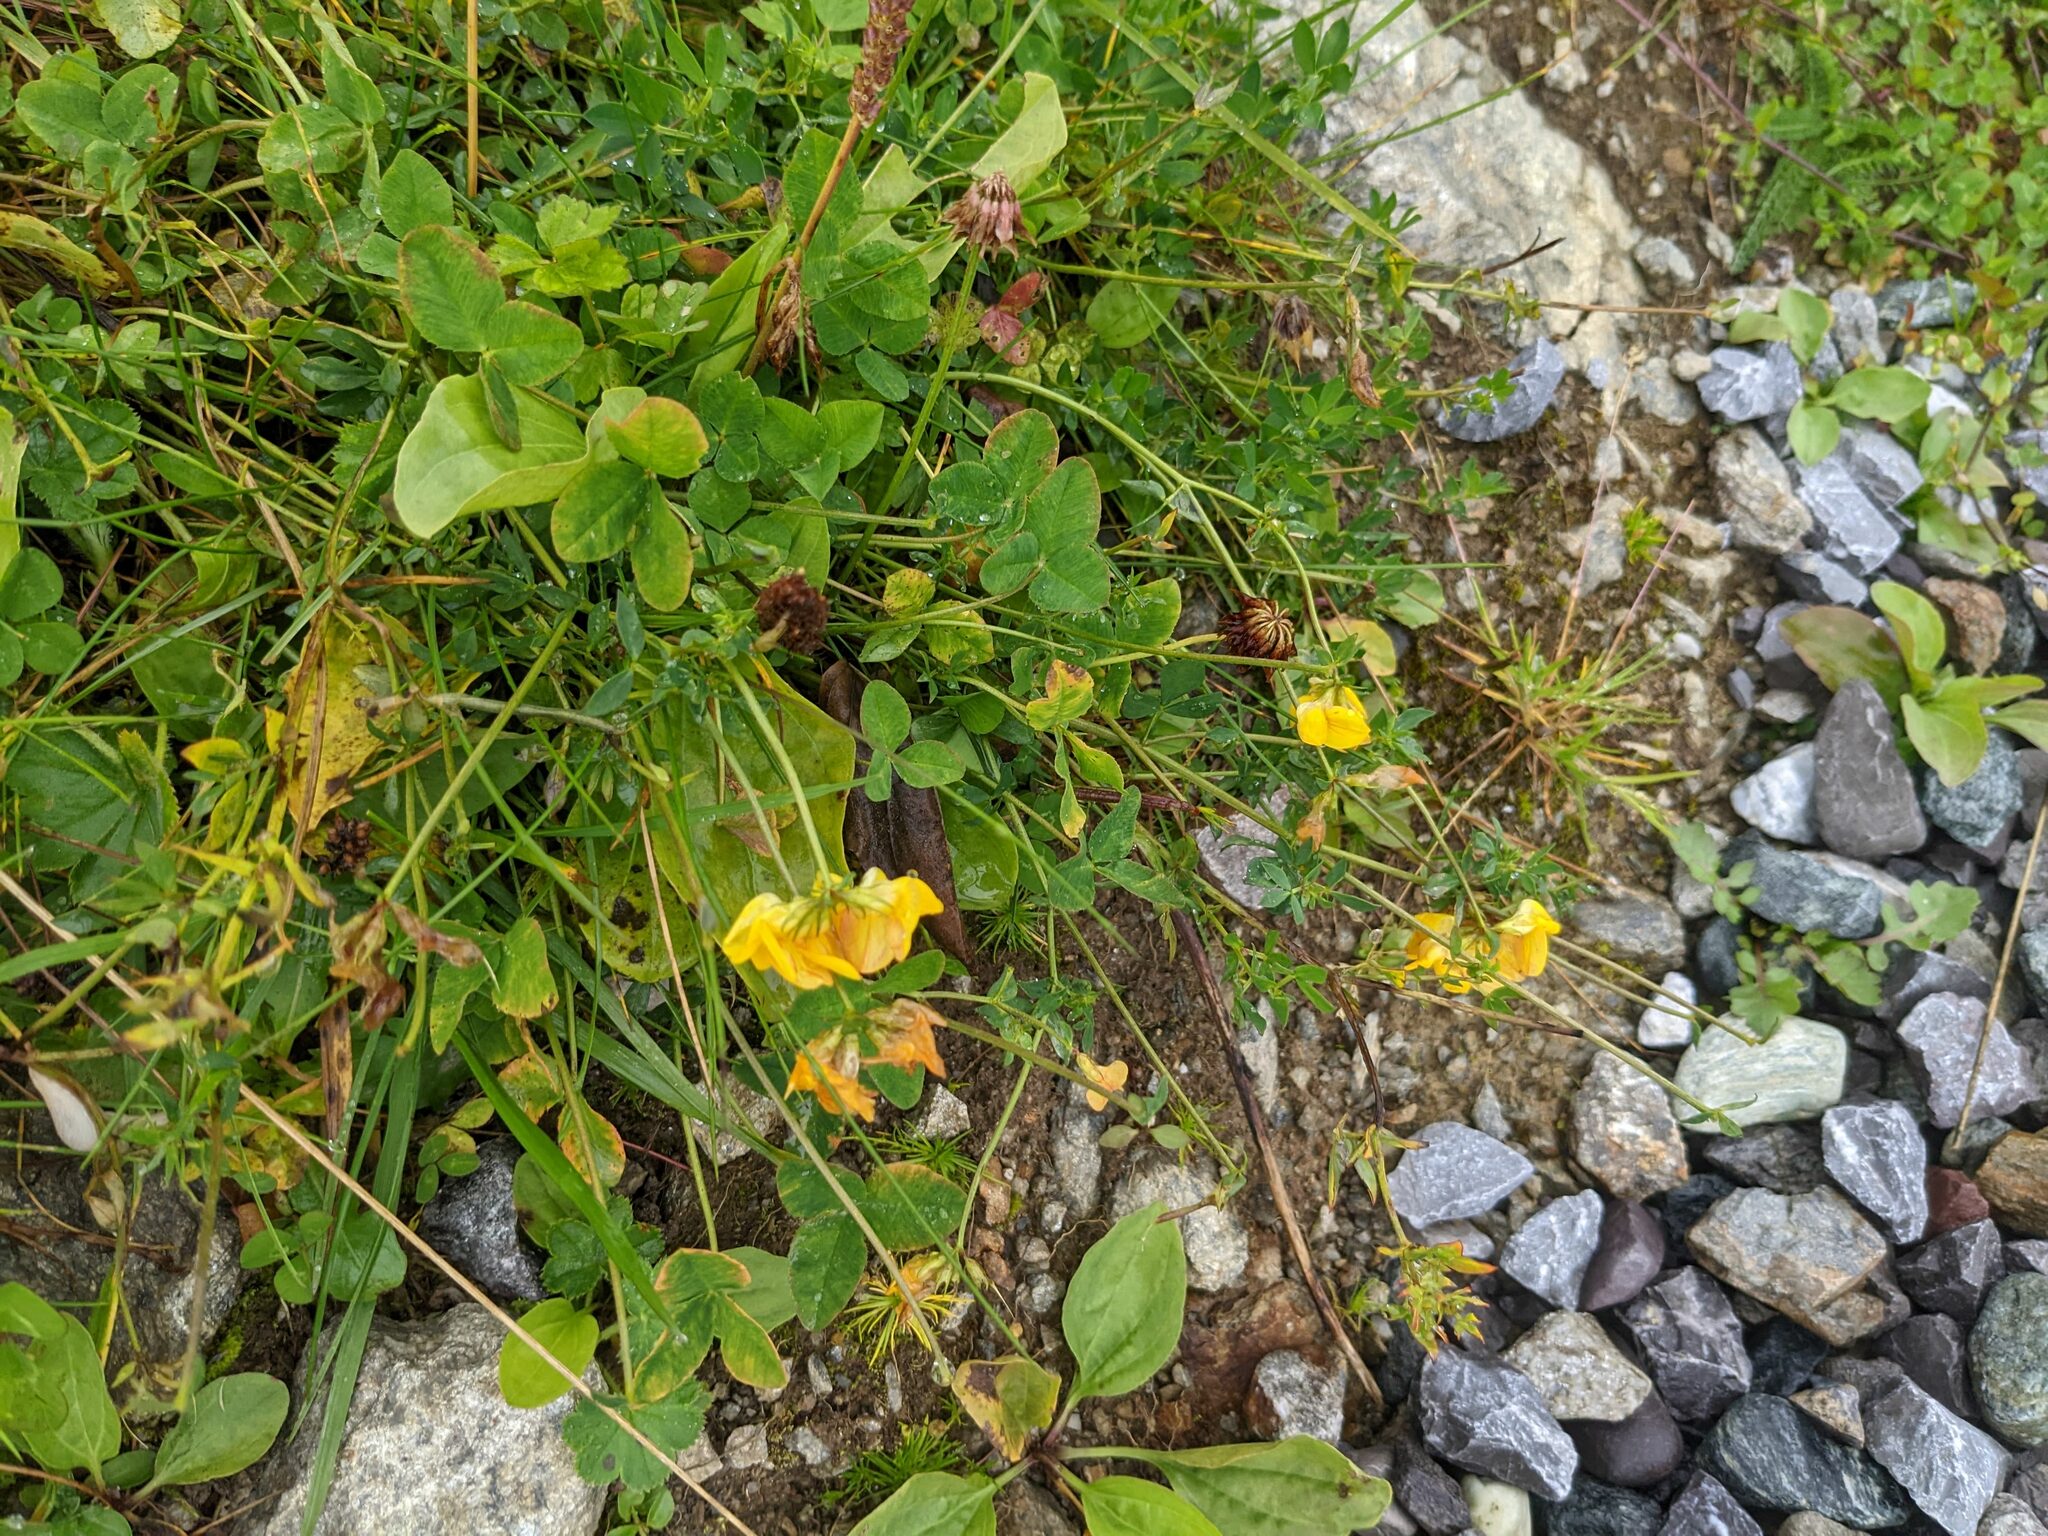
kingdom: Plantae
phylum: Tracheophyta
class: Magnoliopsida
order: Fabales
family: Fabaceae
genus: Lotus
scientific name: Lotus corniculatus
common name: Common bird's-foot-trefoil
